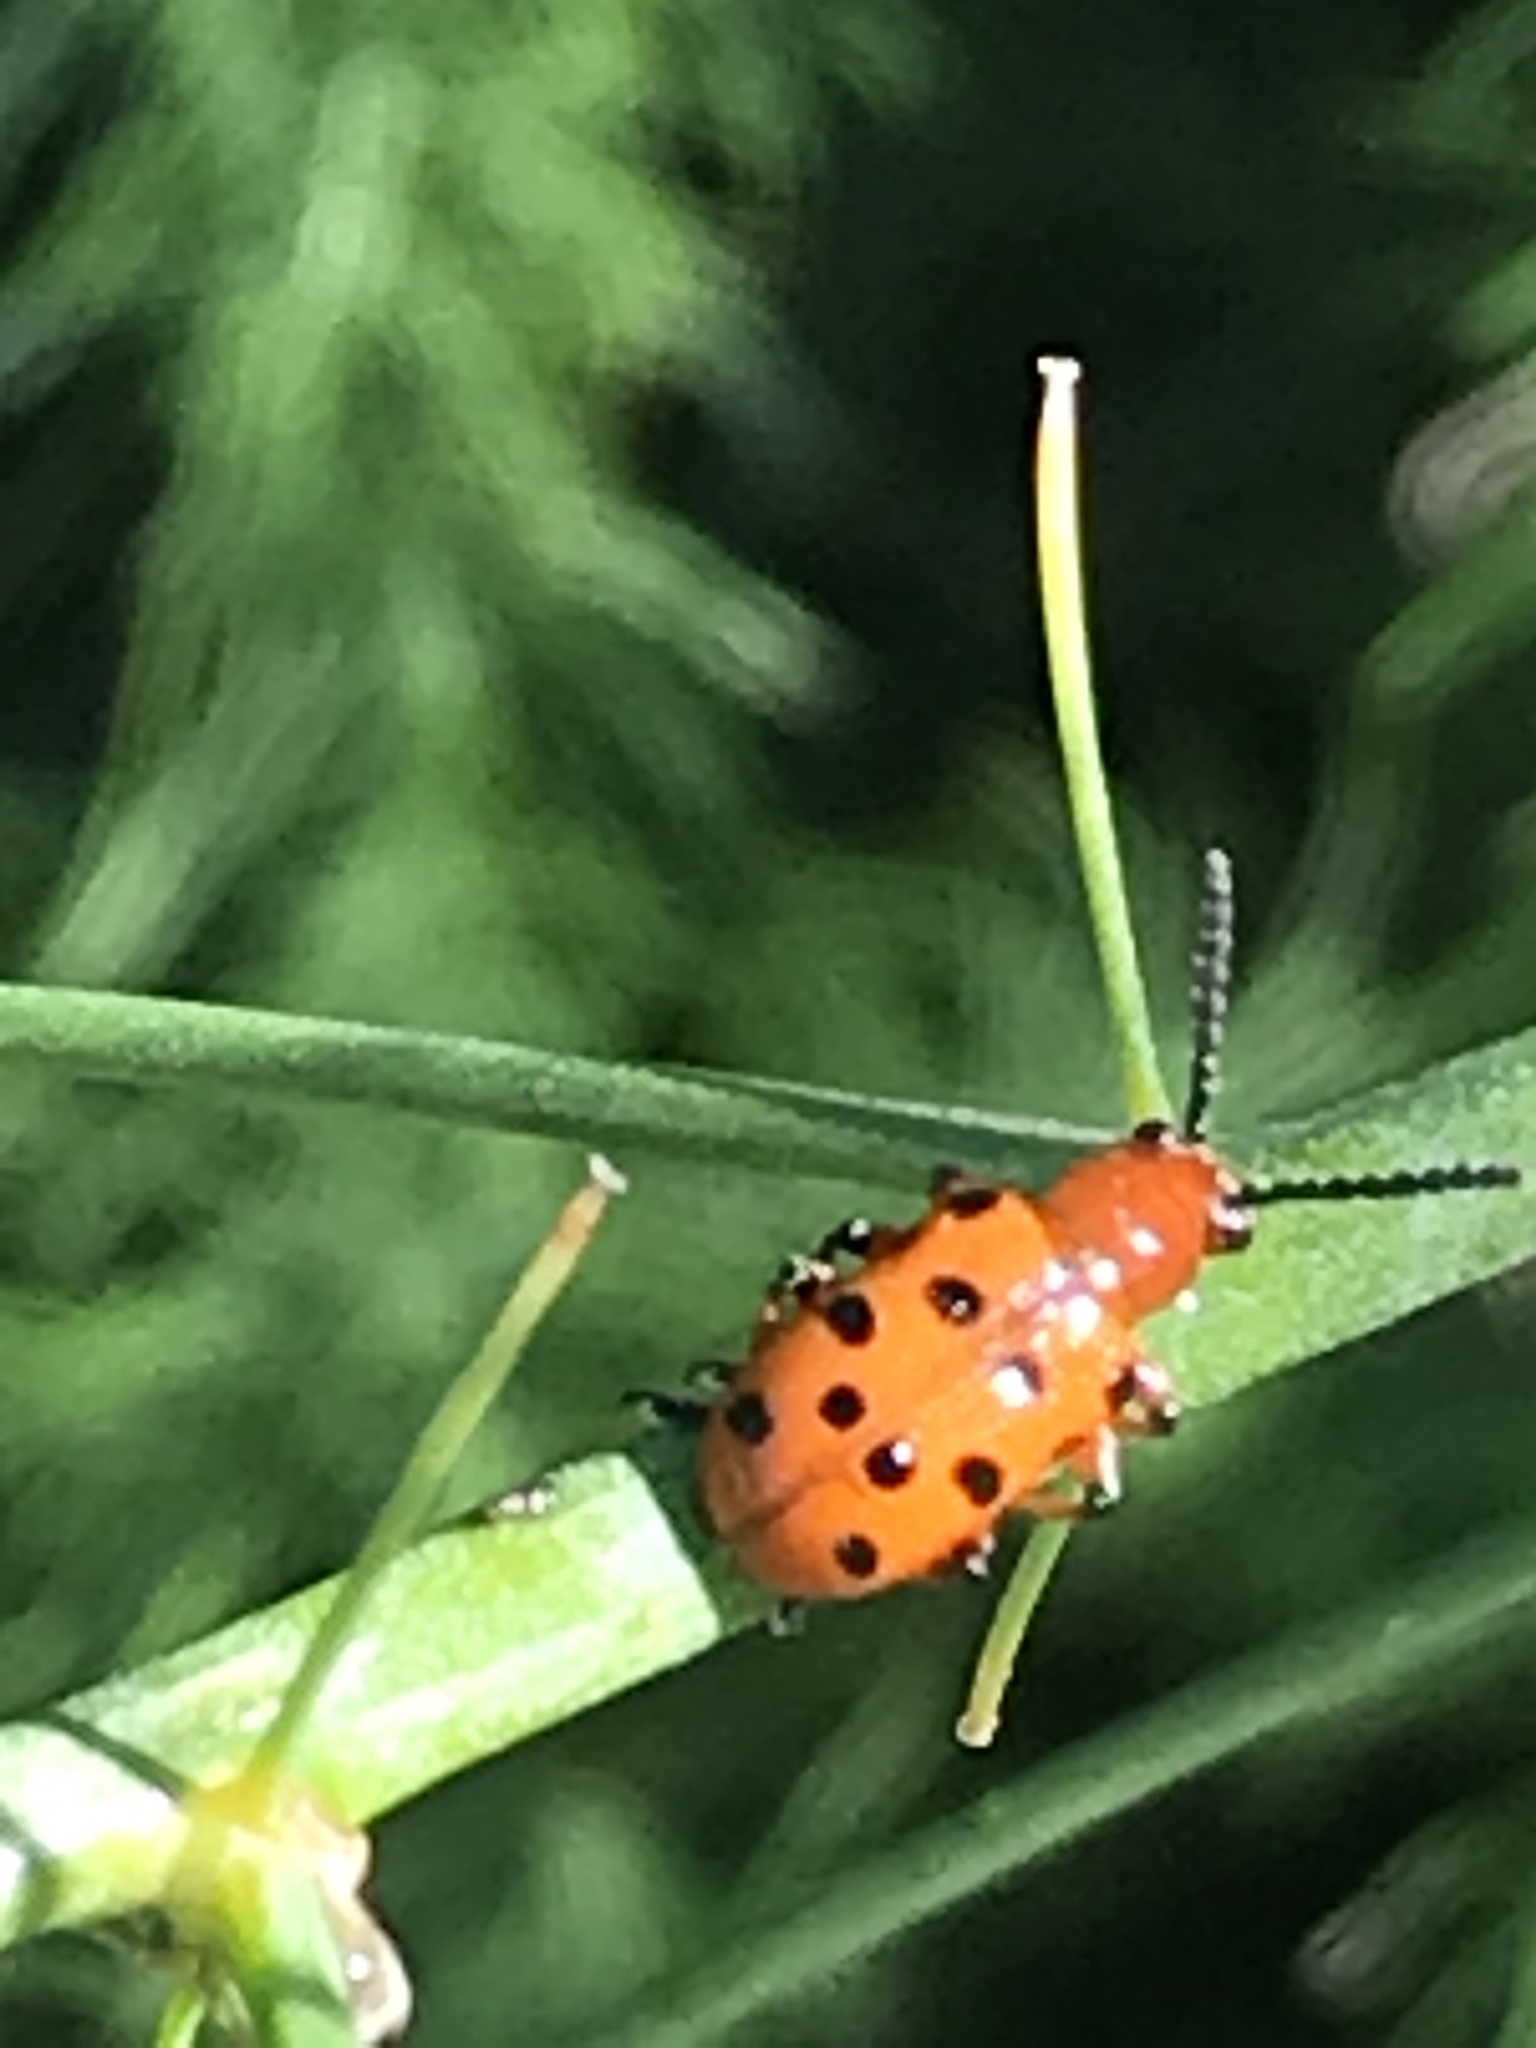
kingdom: Animalia
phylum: Arthropoda
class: Insecta
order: Coleoptera
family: Chrysomelidae
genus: Crioceris
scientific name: Crioceris duodecimpunctata
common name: Twelve-spotted asparagus beetle
